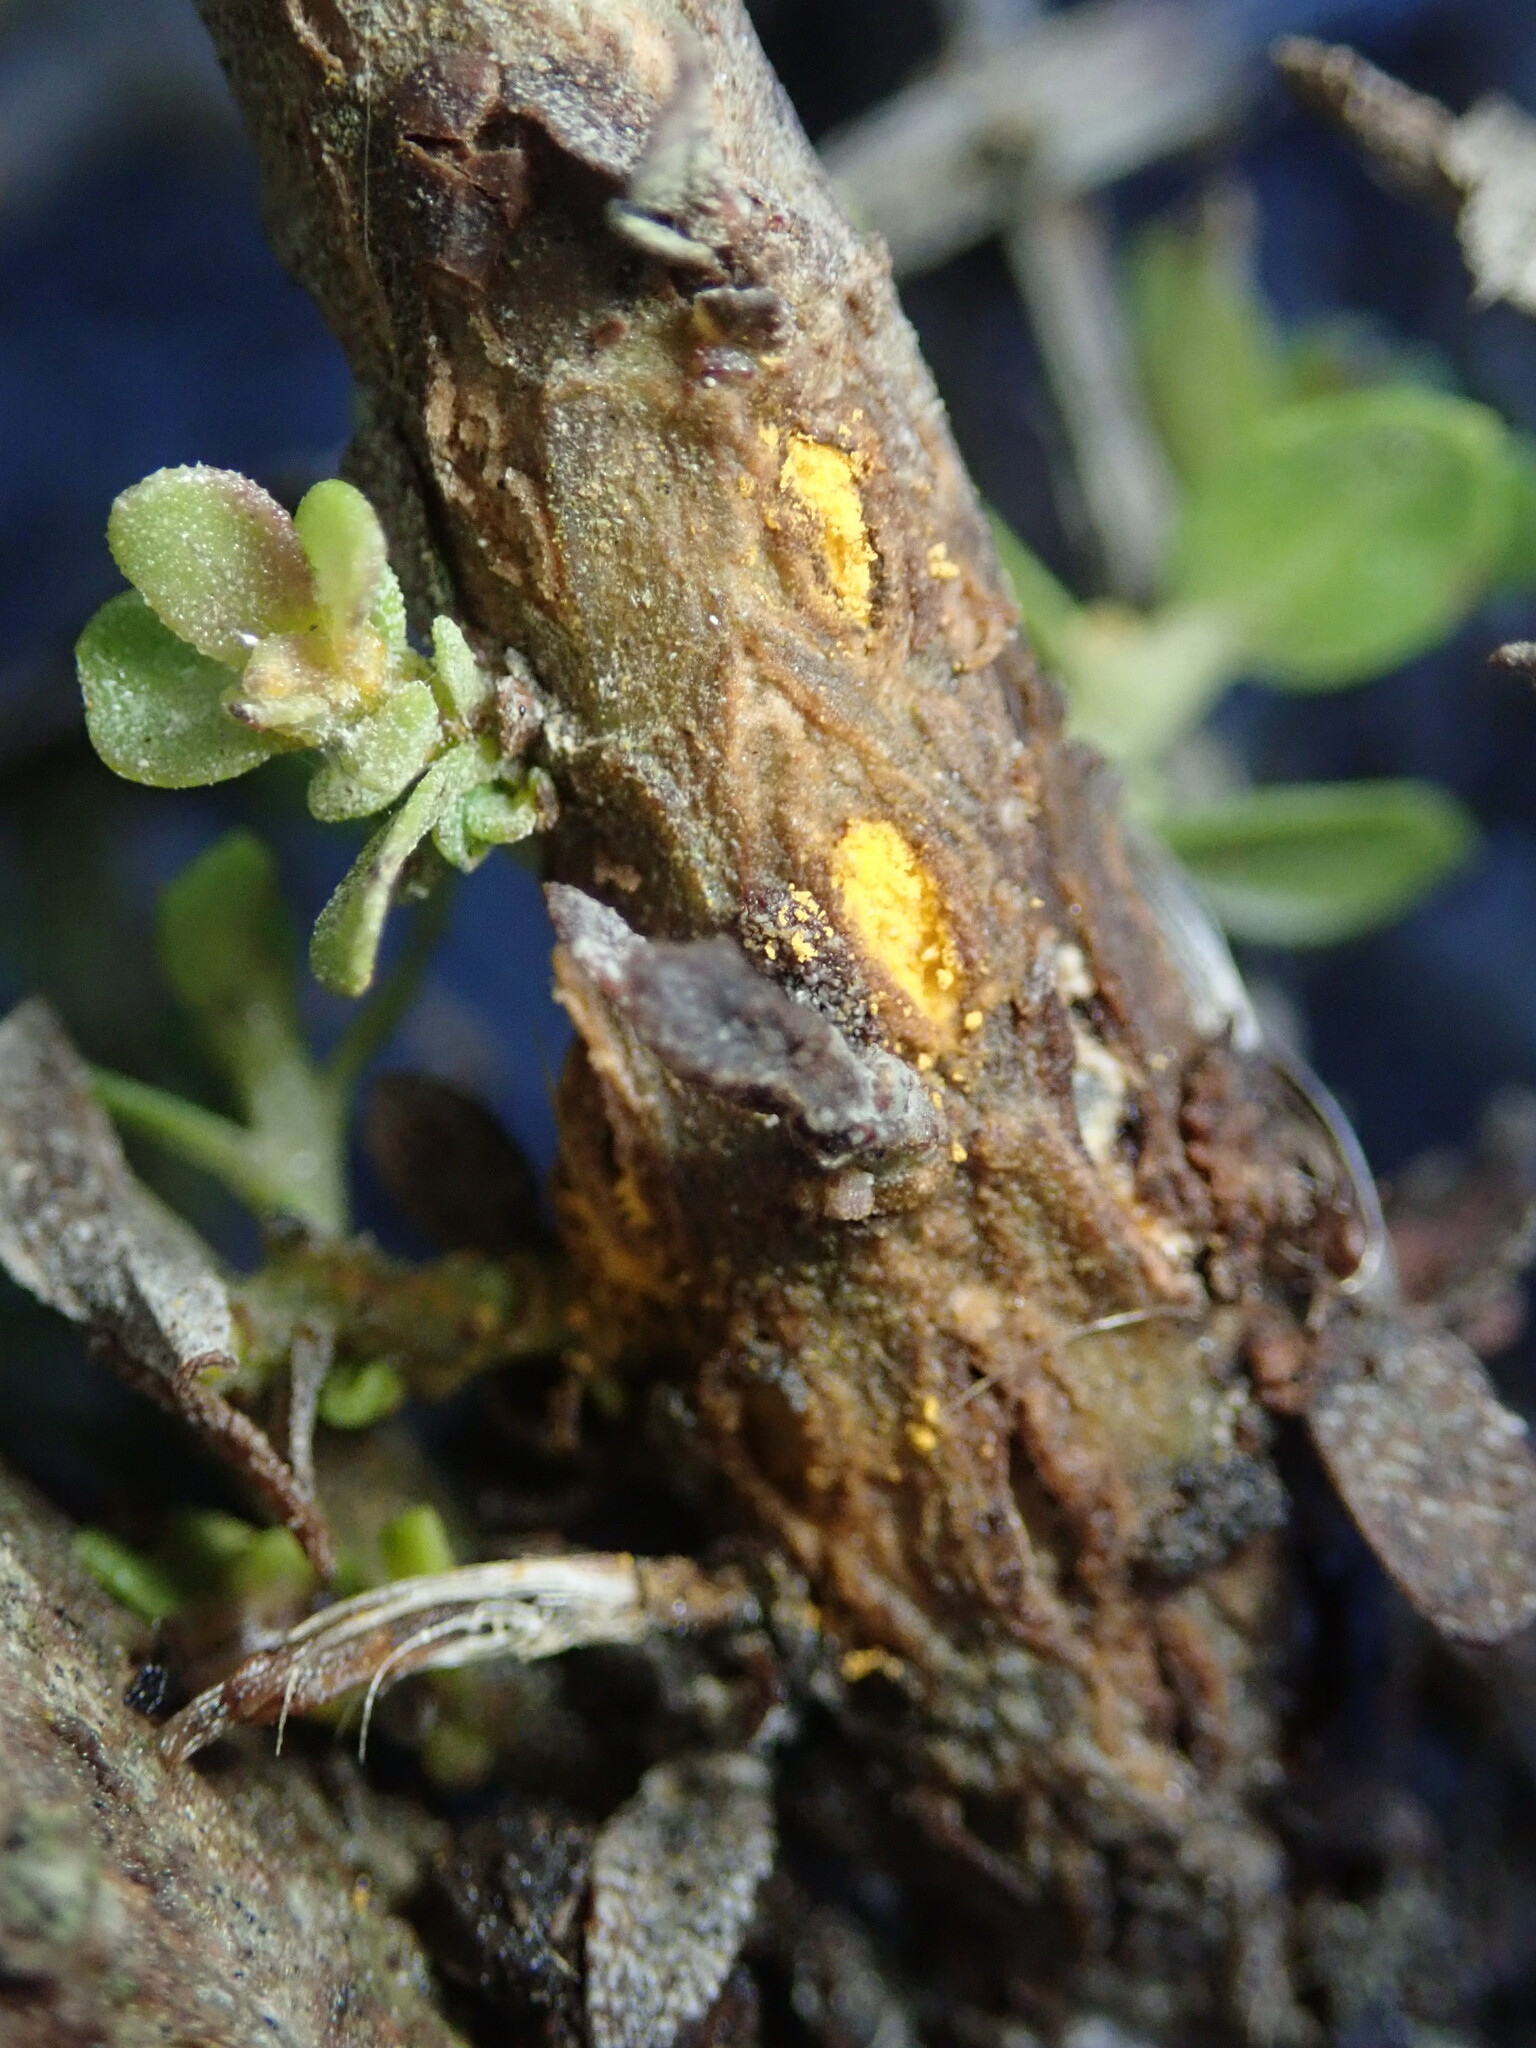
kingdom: Fungi
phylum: Basidiomycota
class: Pucciniomycetes
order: Pucciniales
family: Pucciniaceae
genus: Eriosporangium
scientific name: Eriosporangium evadens
